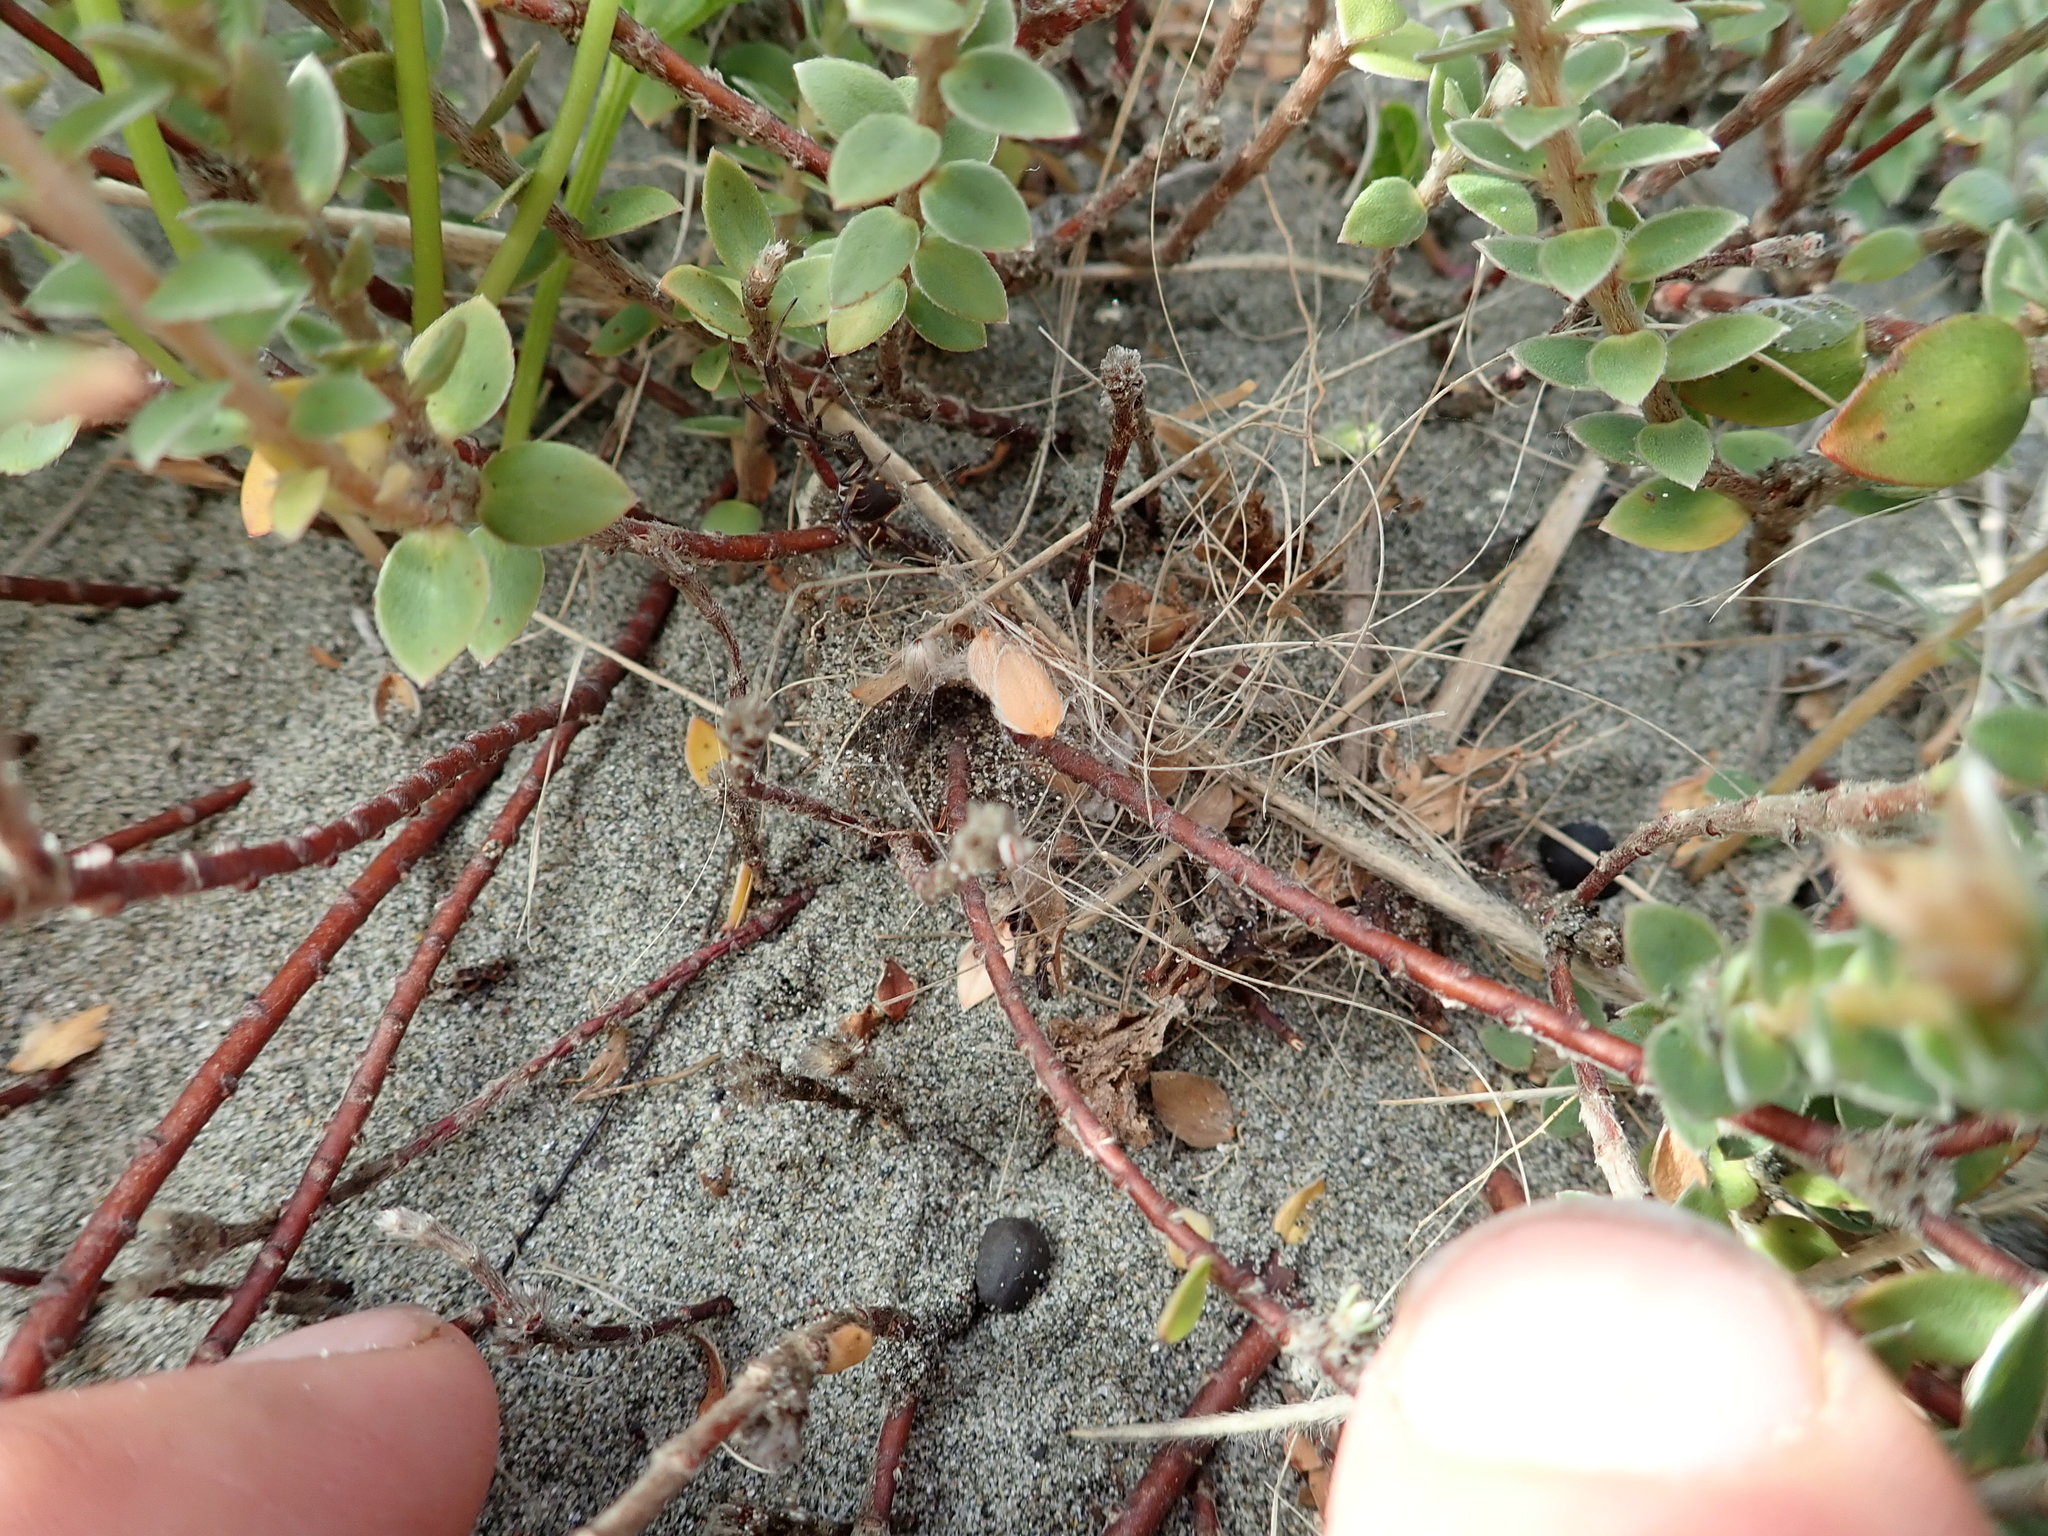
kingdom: Animalia
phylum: Arthropoda
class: Arachnida
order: Araneae
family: Theridiidae
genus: Latrodectus
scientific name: Latrodectus katipo
